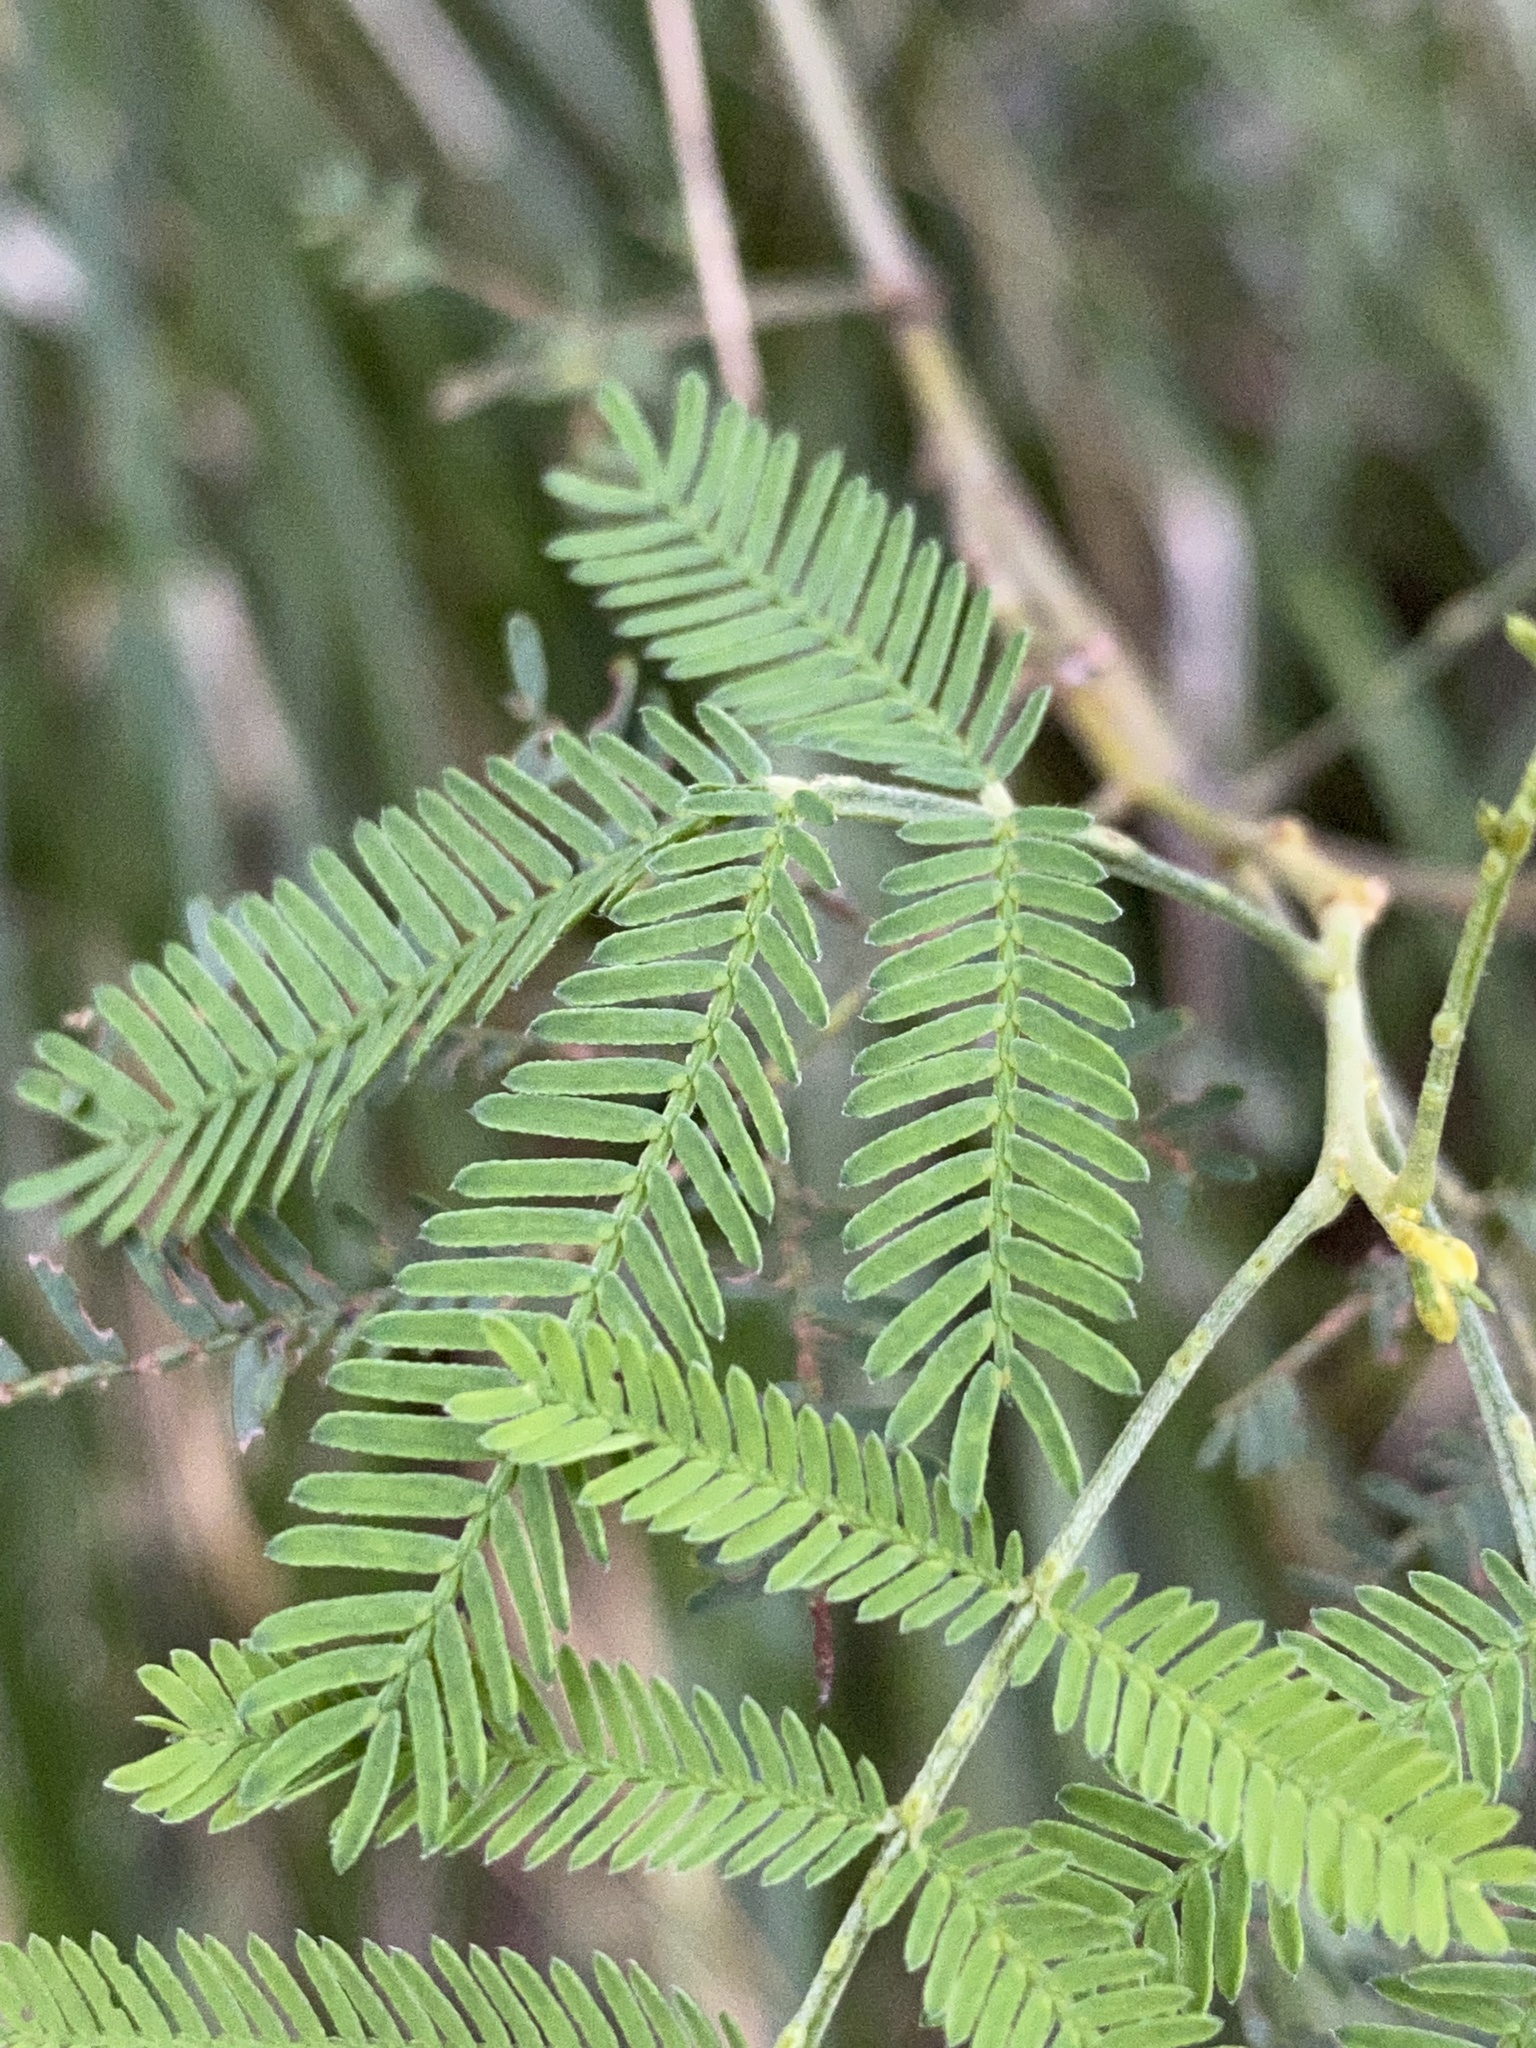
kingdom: Plantae
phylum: Tracheophyta
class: Magnoliopsida
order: Fabales
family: Fabaceae
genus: Acacia
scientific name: Acacia
